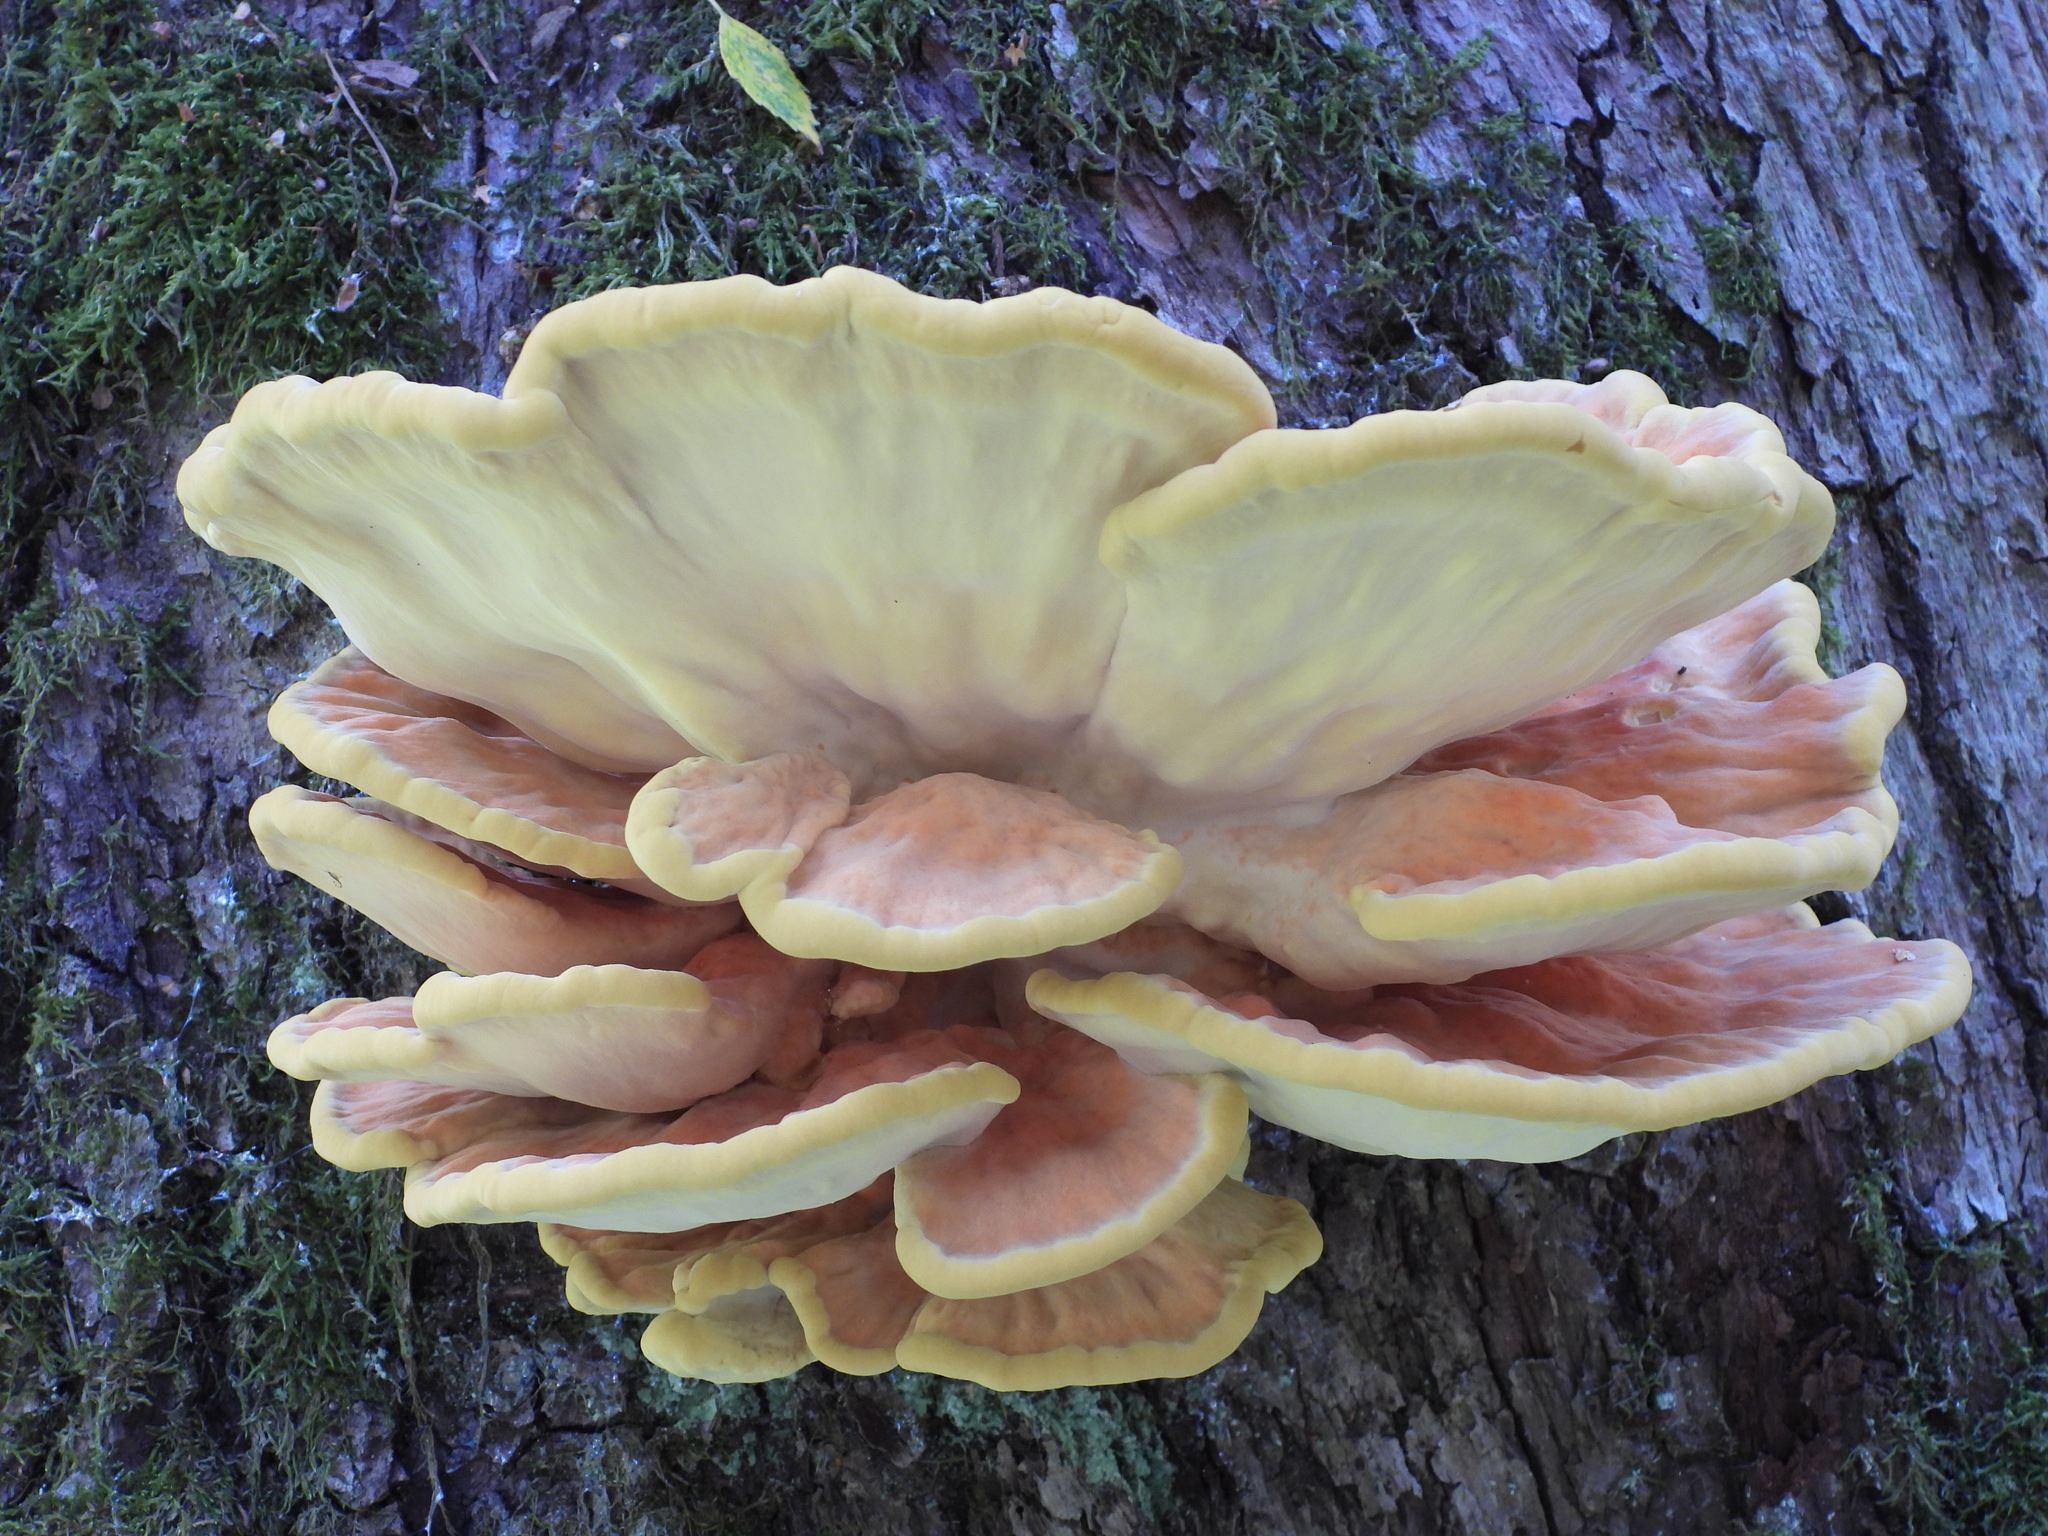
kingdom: Fungi
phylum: Basidiomycota
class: Agaricomycetes
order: Polyporales
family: Laetiporaceae
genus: Laetiporus
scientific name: Laetiporus sulphureus
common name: Chicken of the woods
